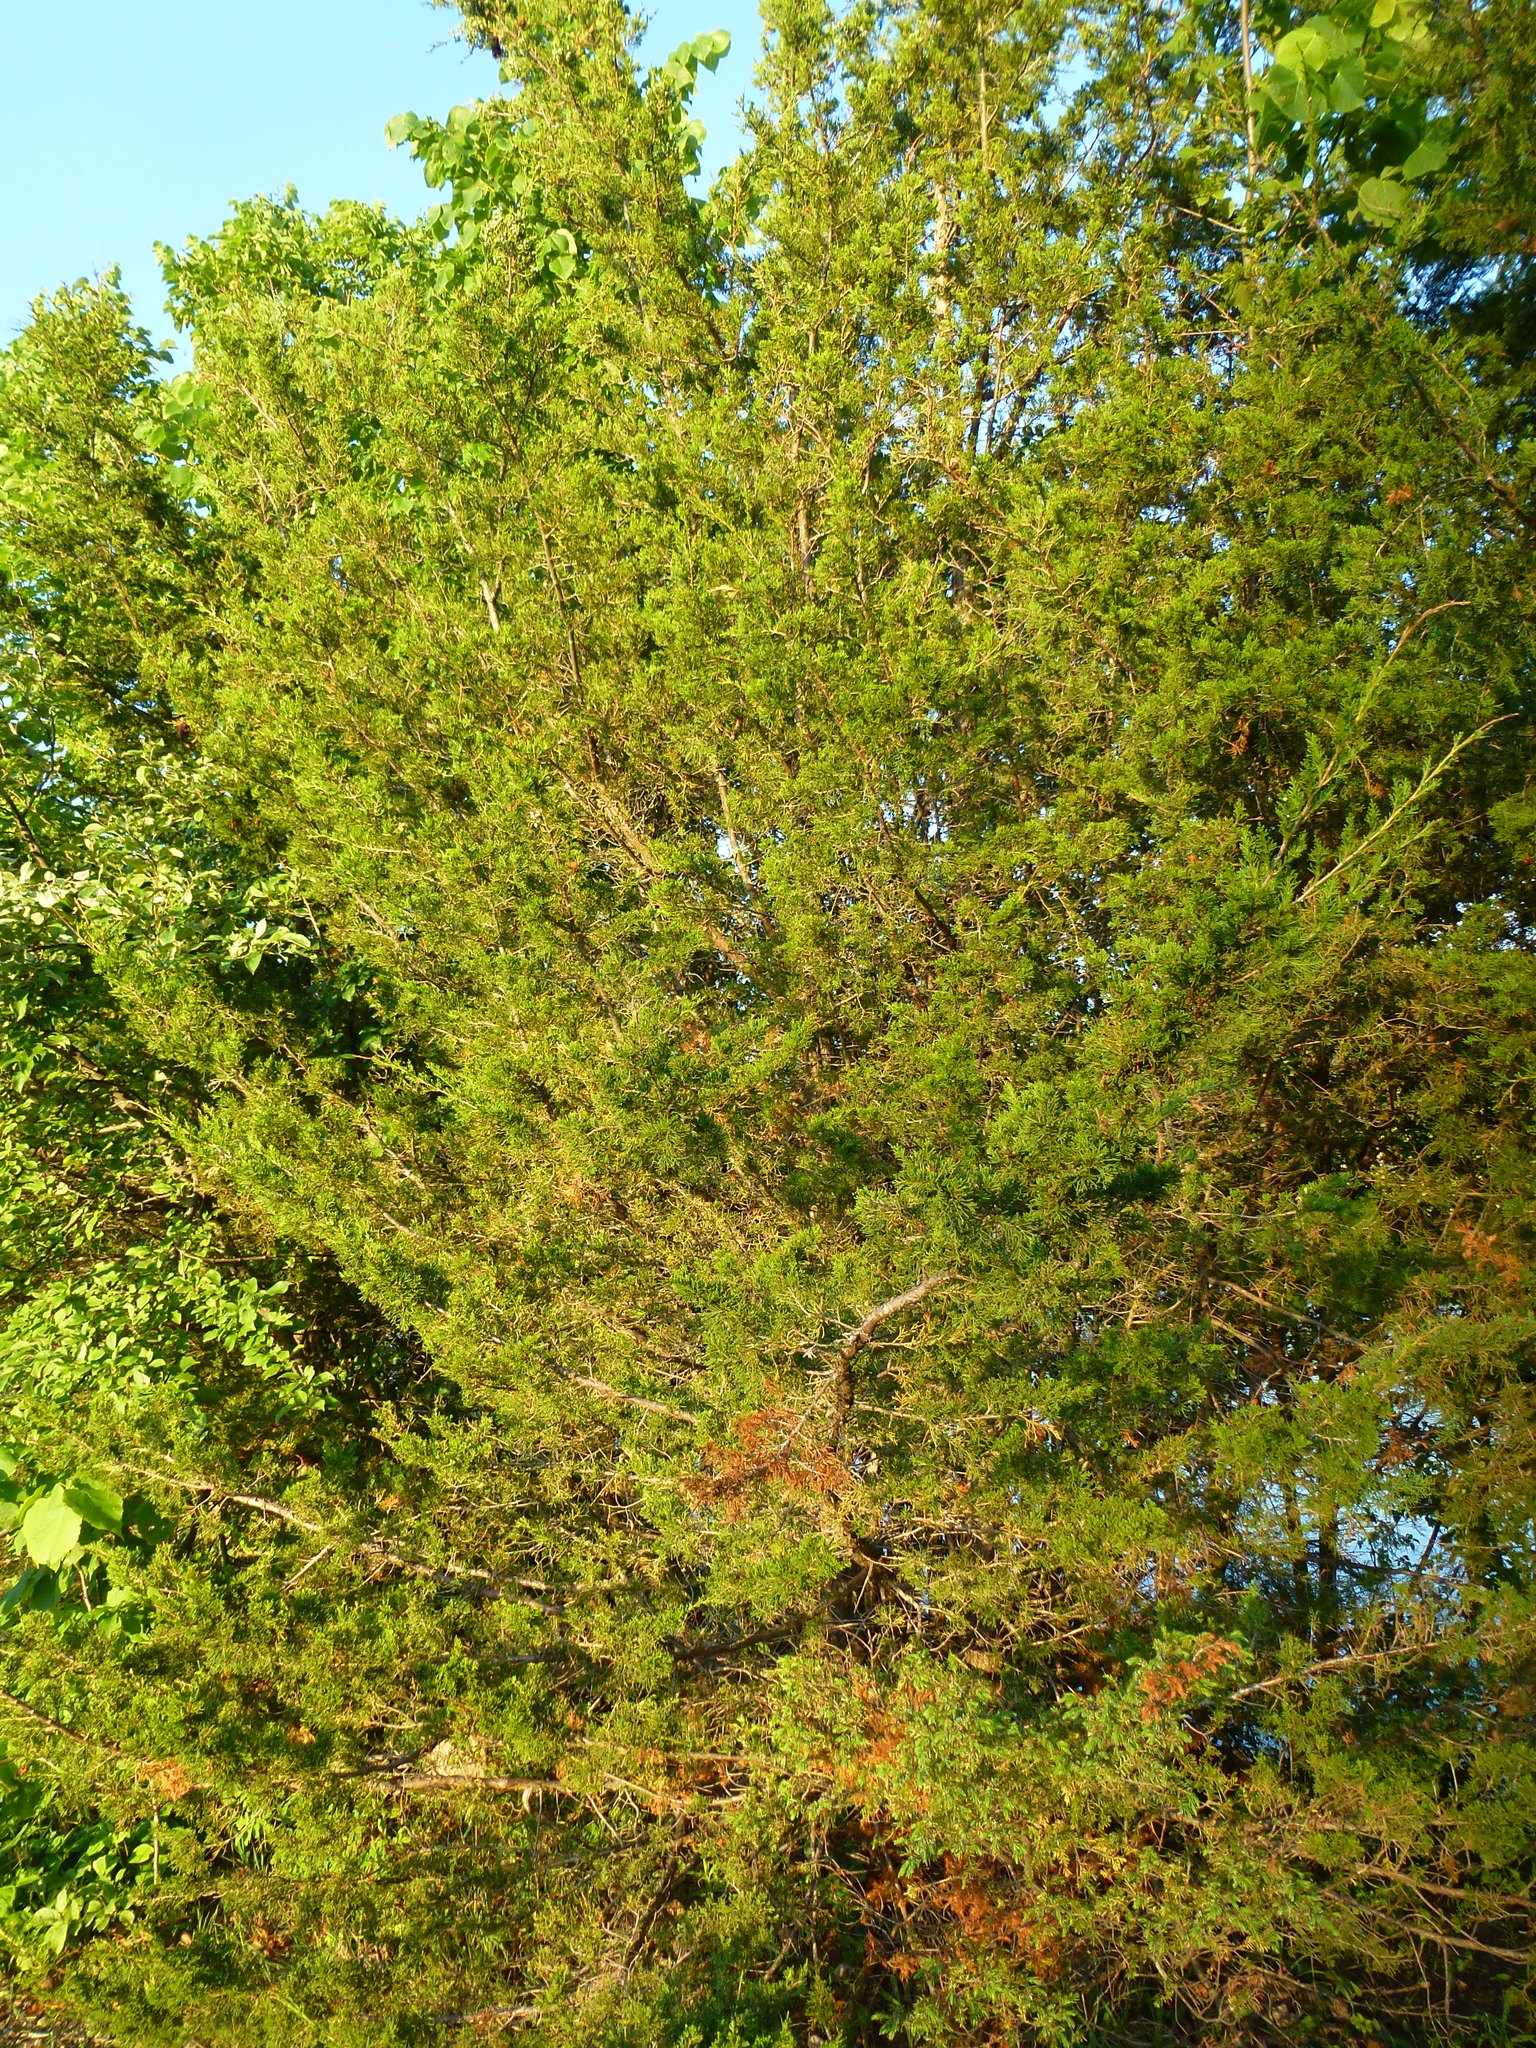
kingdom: Plantae
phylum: Tracheophyta
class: Pinopsida
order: Pinales
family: Cupressaceae
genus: Juniperus
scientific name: Juniperus virginiana
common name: Red juniper
